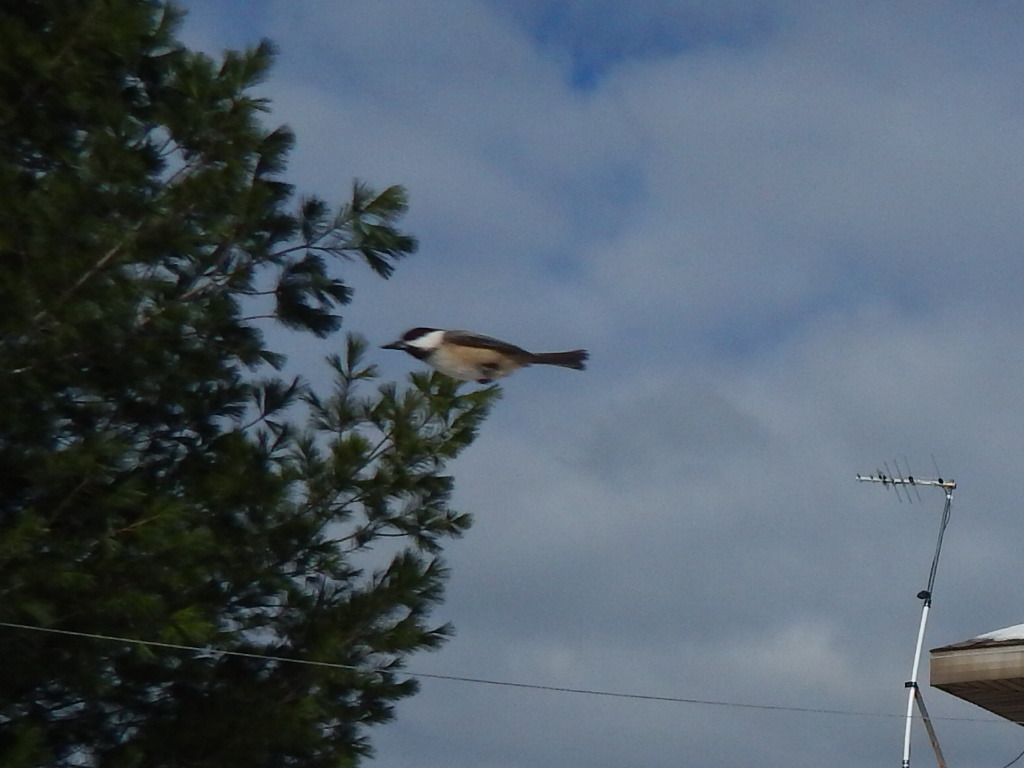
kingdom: Animalia
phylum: Chordata
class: Aves
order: Passeriformes
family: Paridae
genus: Poecile
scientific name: Poecile atricapillus
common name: Black-capped chickadee
